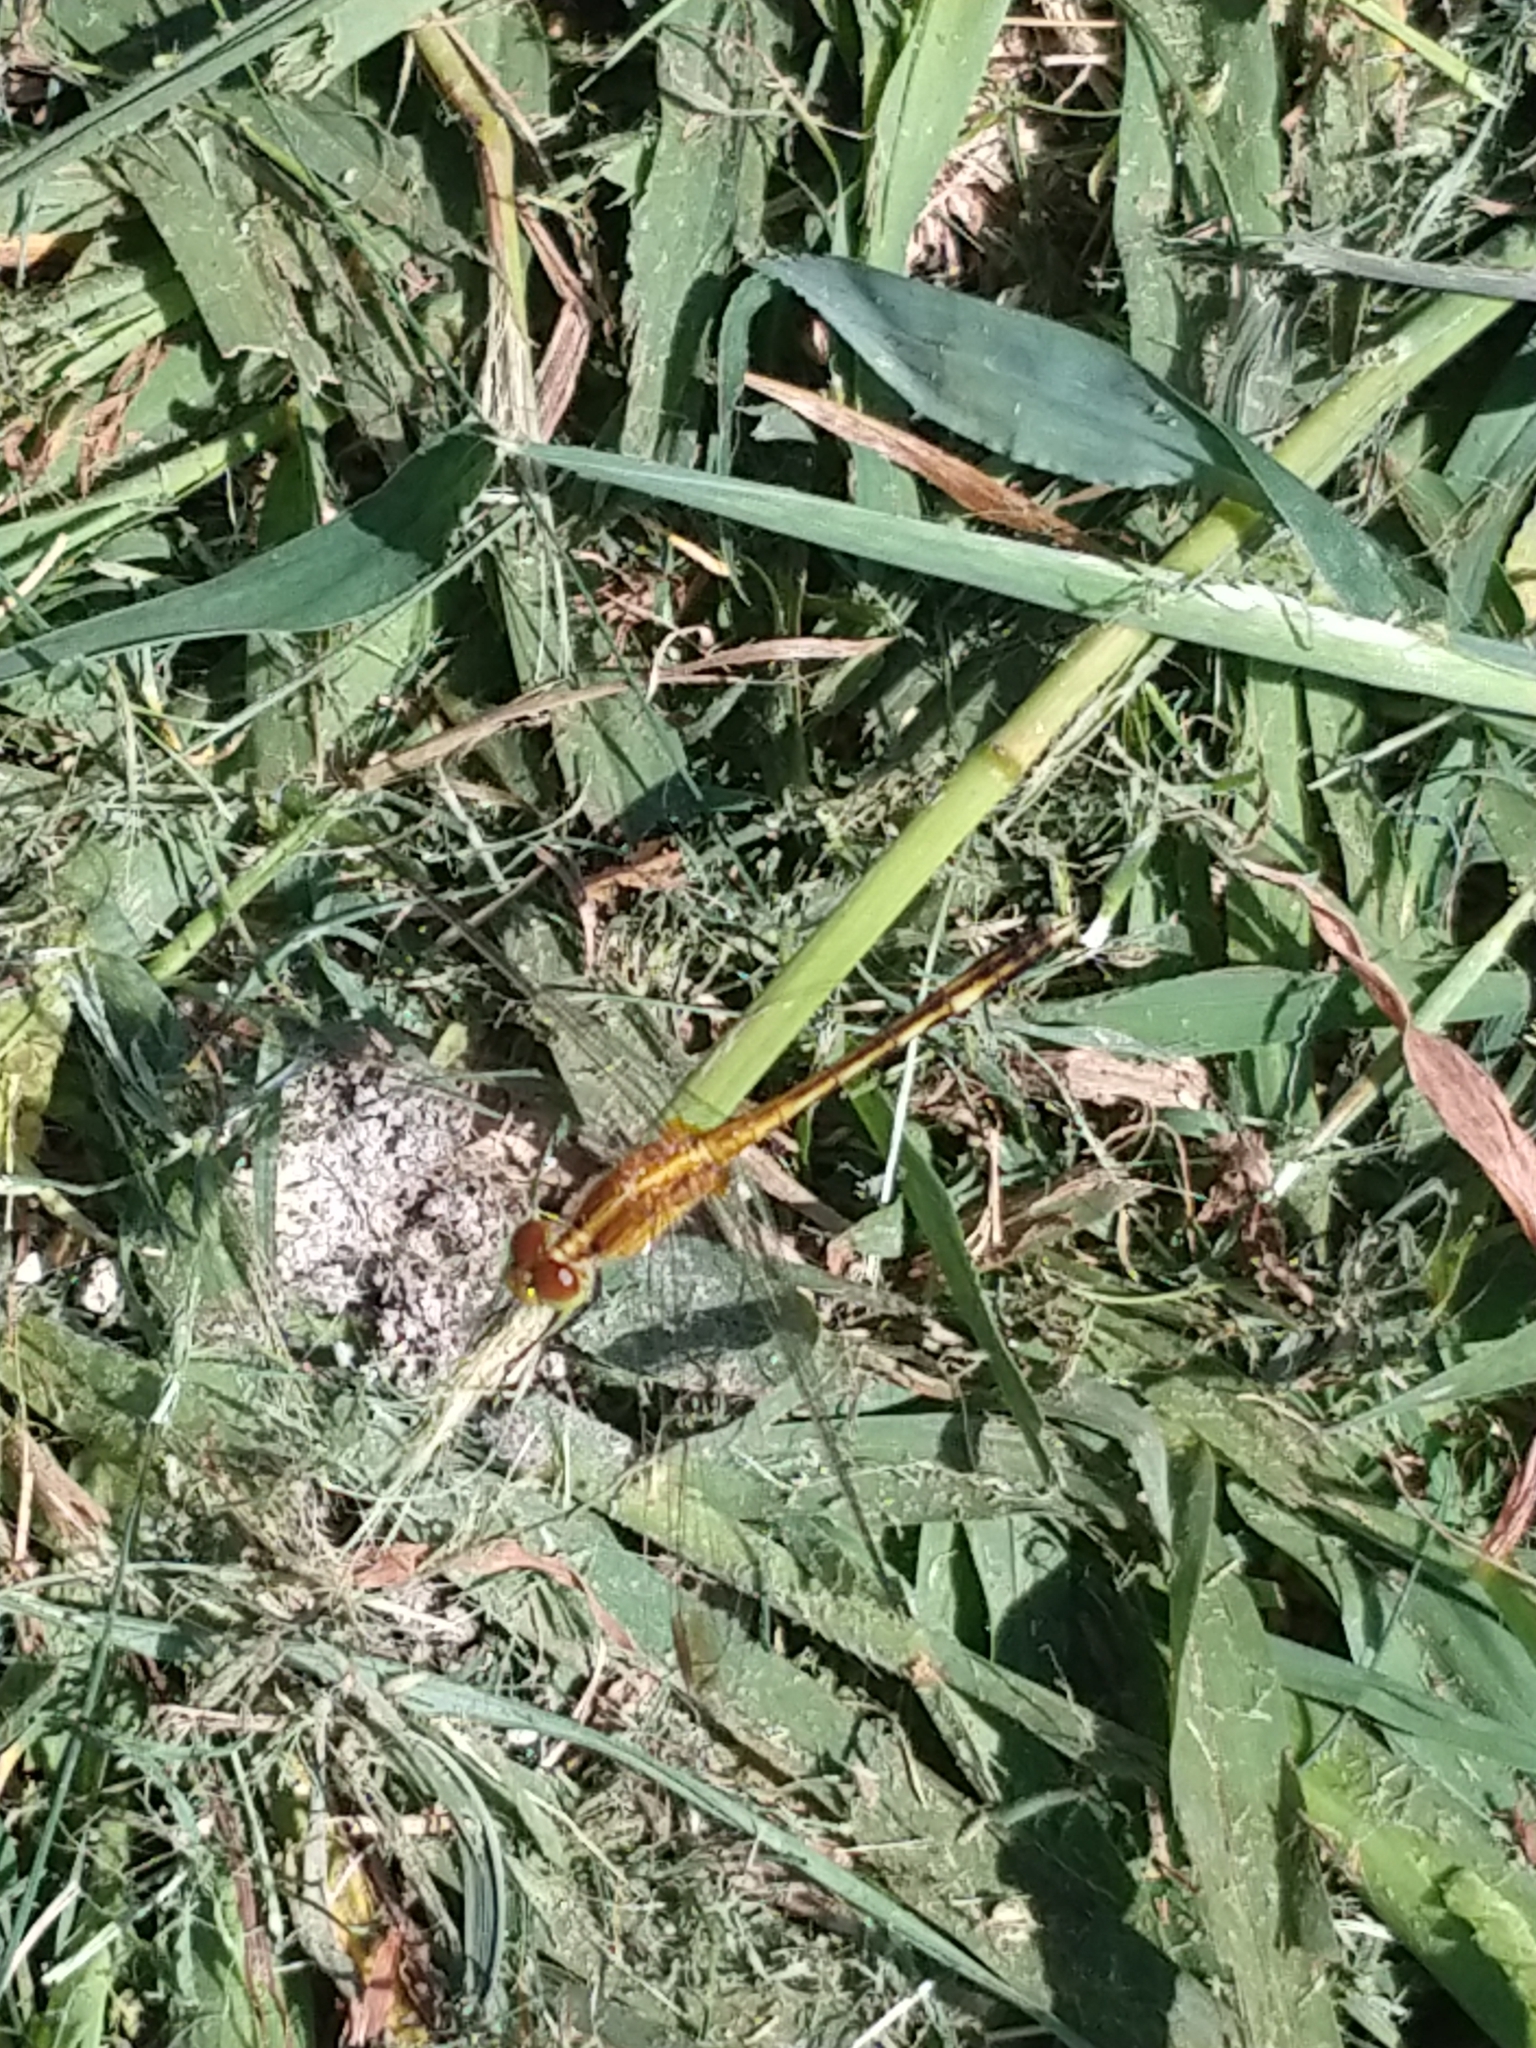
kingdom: Animalia
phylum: Arthropoda
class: Insecta
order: Odonata
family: Libellulidae
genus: Erythrodiplax
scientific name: Erythrodiplax nigricans
